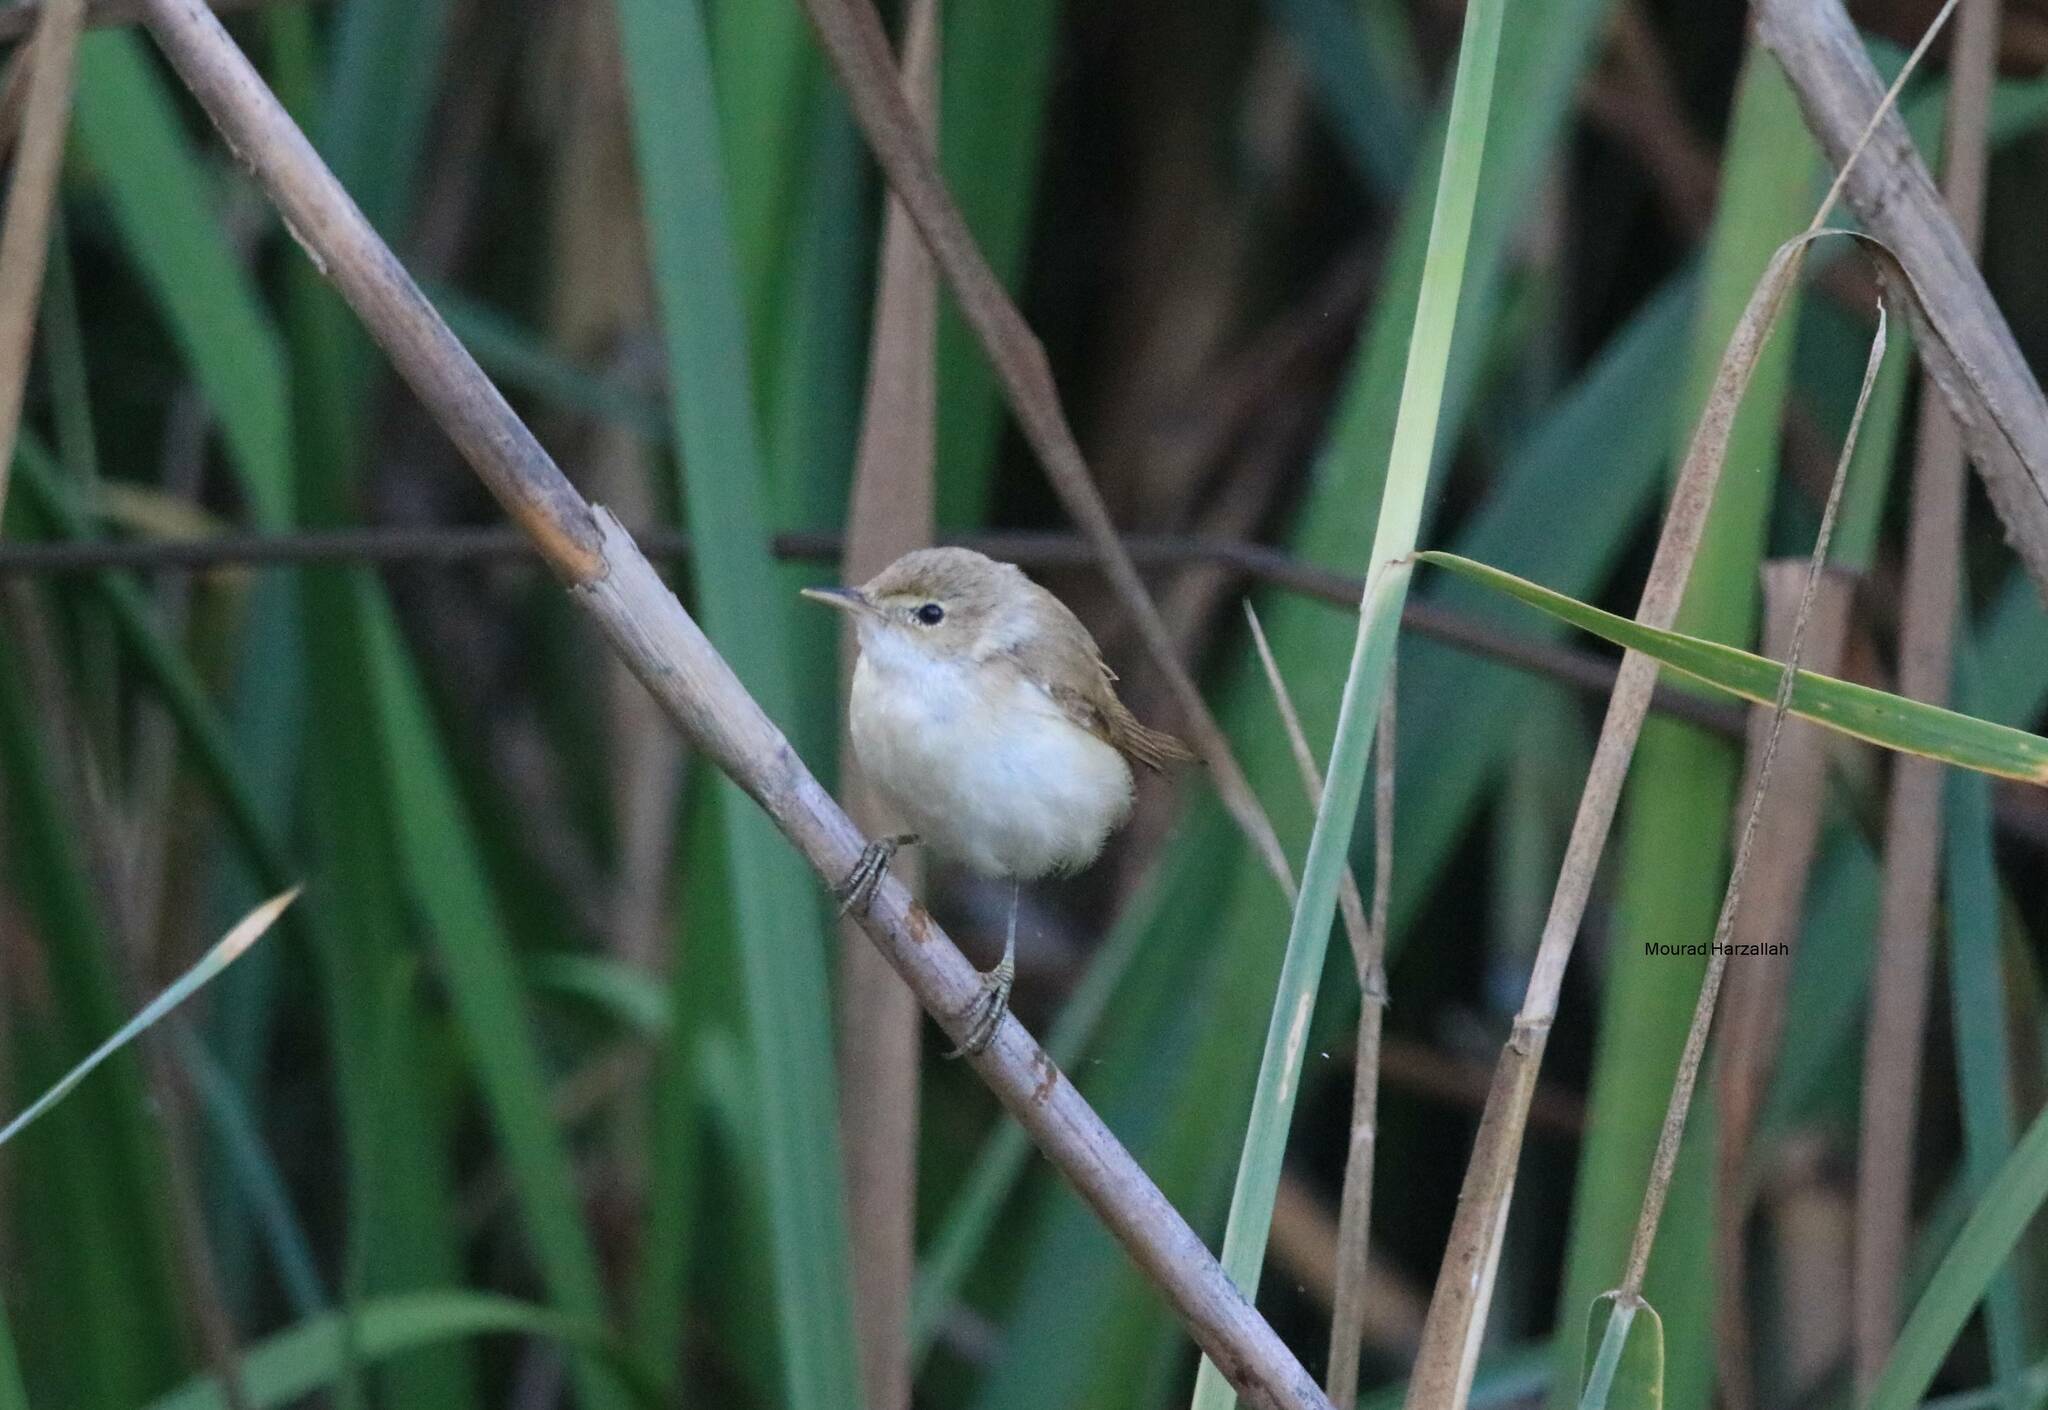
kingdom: Animalia
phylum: Chordata
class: Aves
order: Passeriformes
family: Acrocephalidae
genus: Acrocephalus
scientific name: Acrocephalus scirpaceus
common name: Eurasian reed warbler
